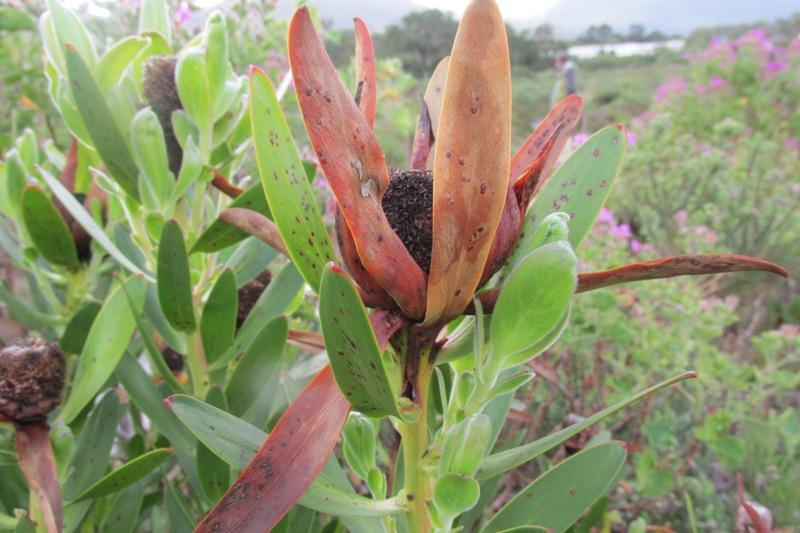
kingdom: Plantae
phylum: Tracheophyta
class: Magnoliopsida
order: Proteales
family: Proteaceae
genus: Leucadendron
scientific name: Leucadendron laureolum
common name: Golden sunshinebush
